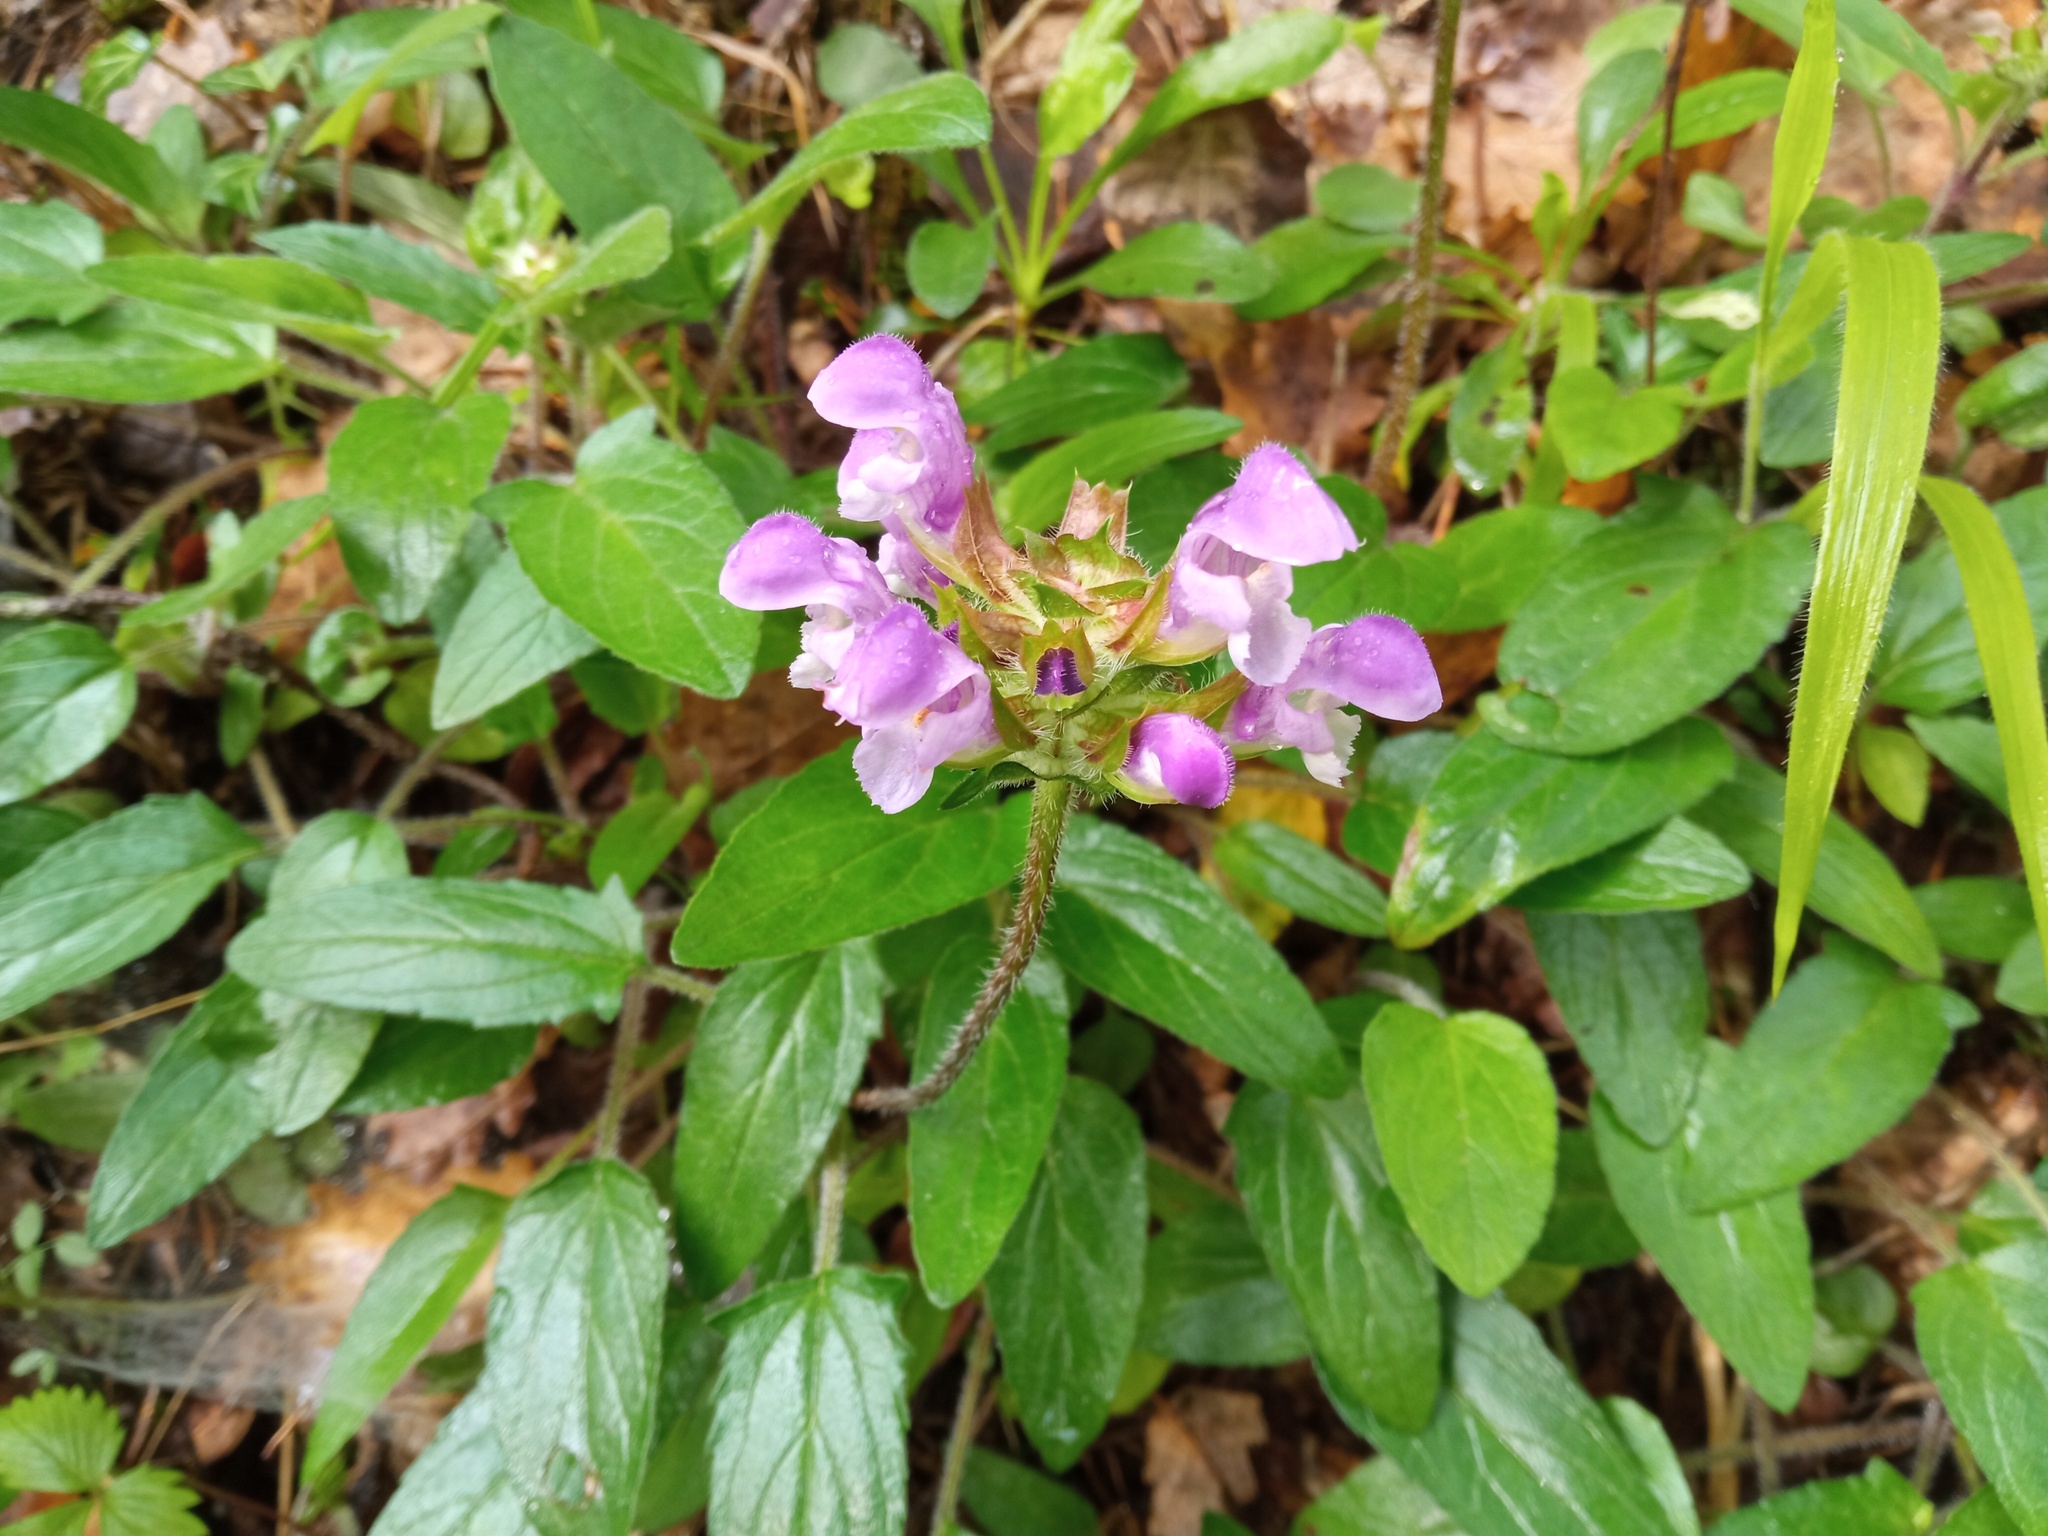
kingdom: Plantae
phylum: Tracheophyta
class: Magnoliopsida
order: Lamiales
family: Lamiaceae
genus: Prunella
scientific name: Prunella grandiflora
